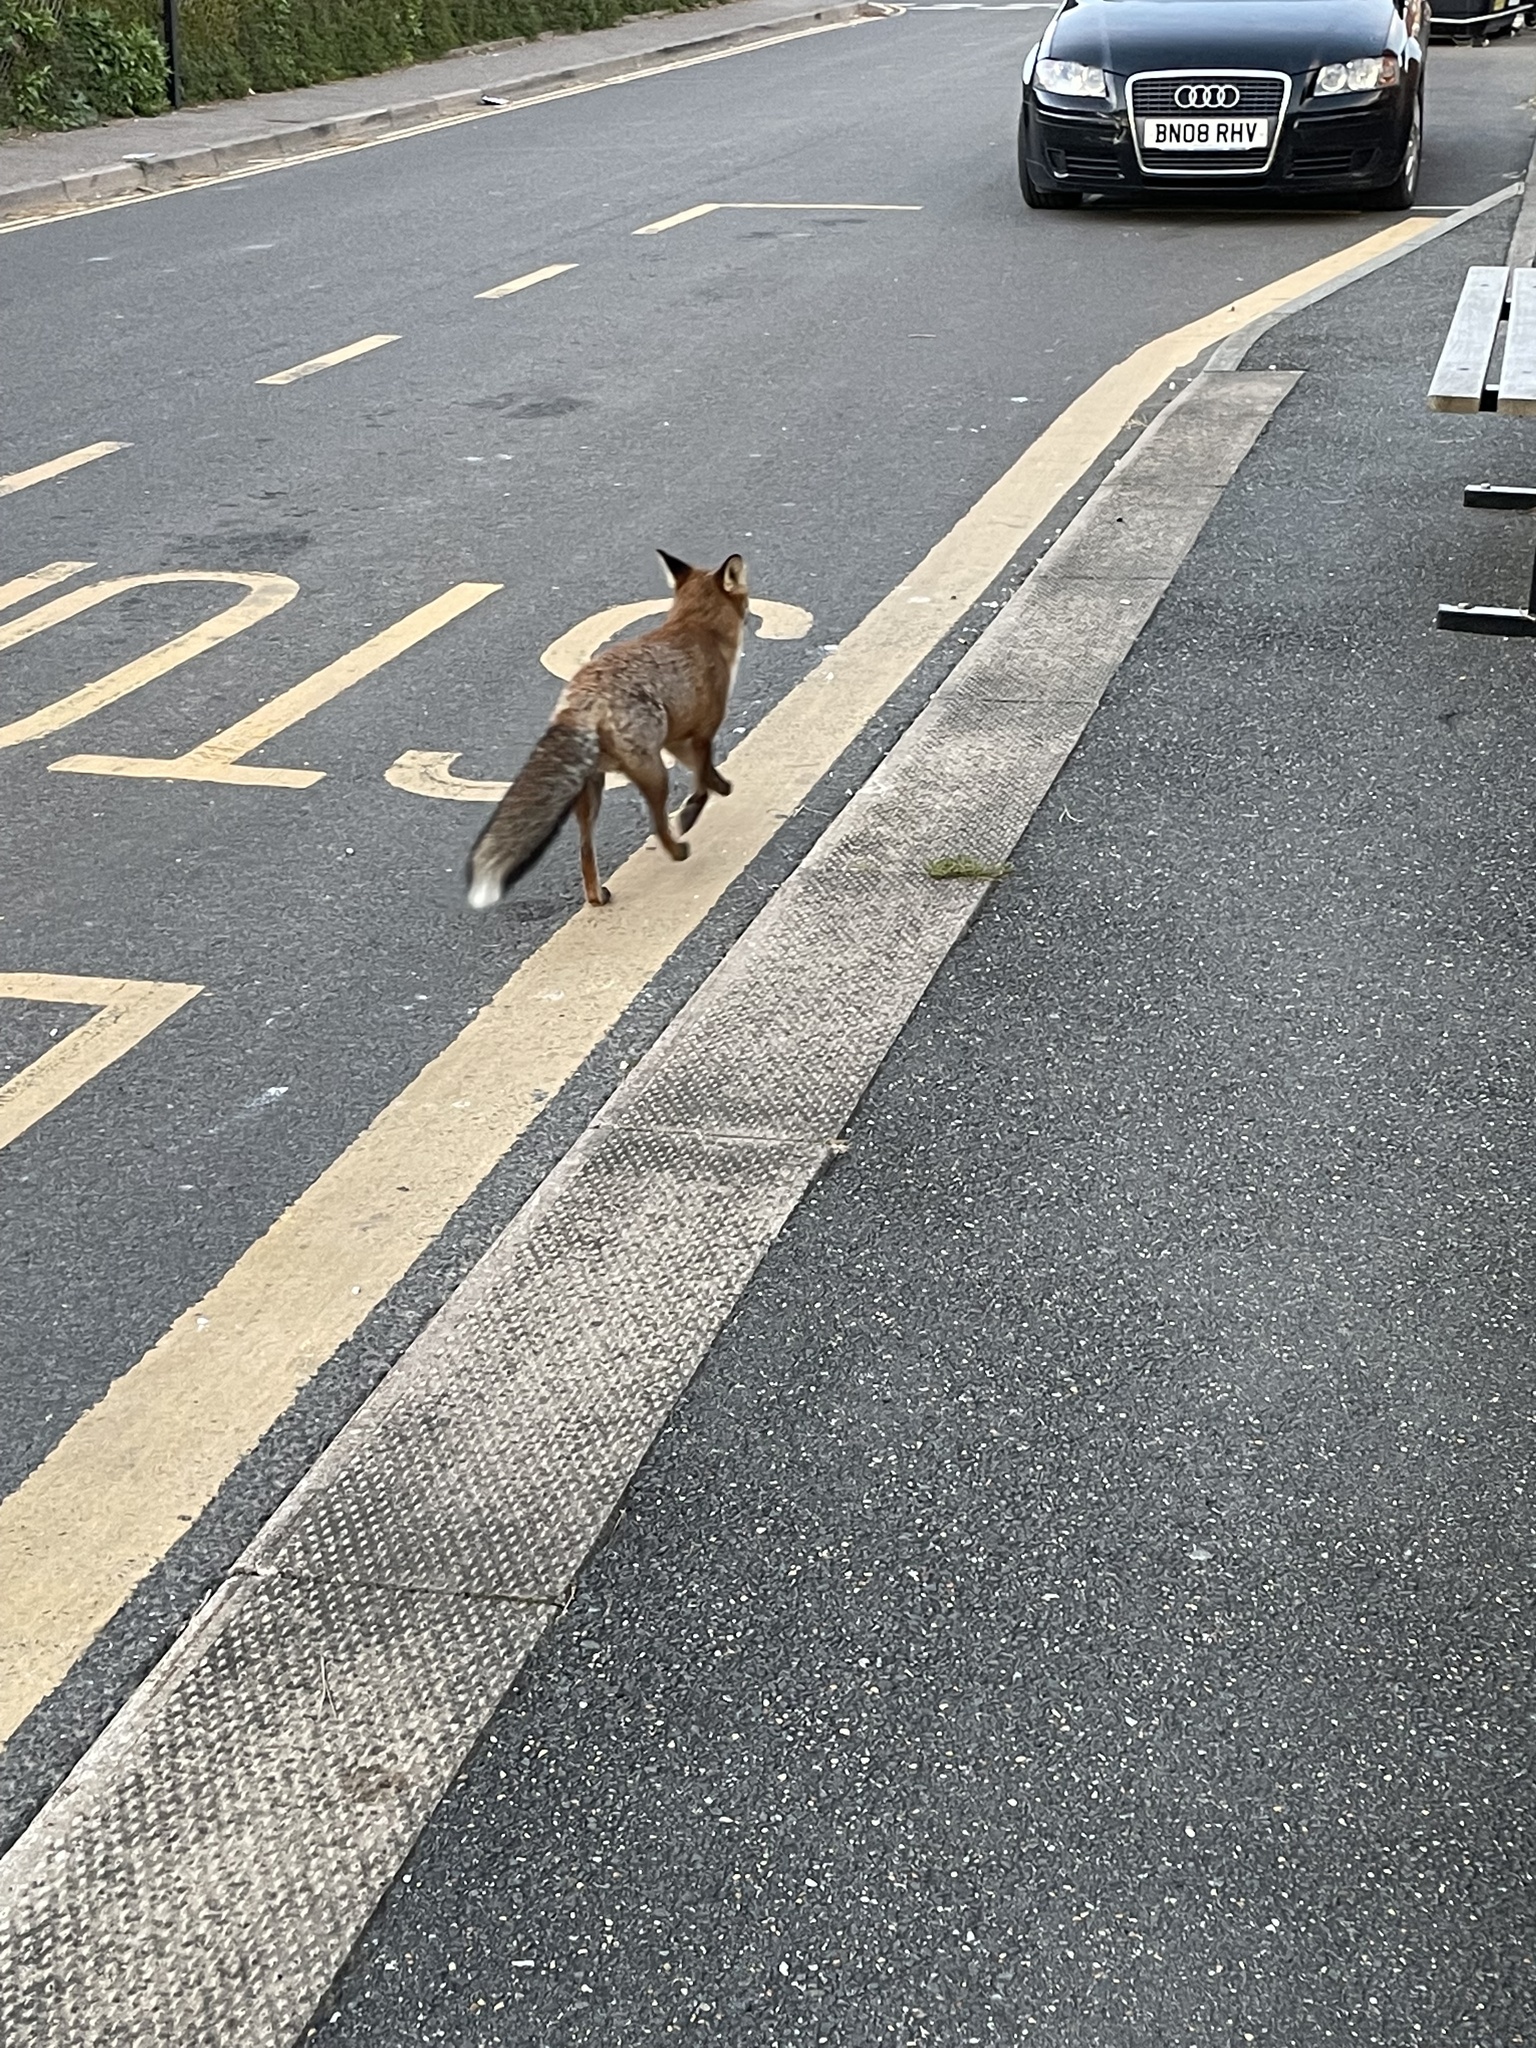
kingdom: Animalia
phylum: Chordata
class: Mammalia
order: Carnivora
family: Canidae
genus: Vulpes
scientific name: Vulpes vulpes
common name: Red fox
